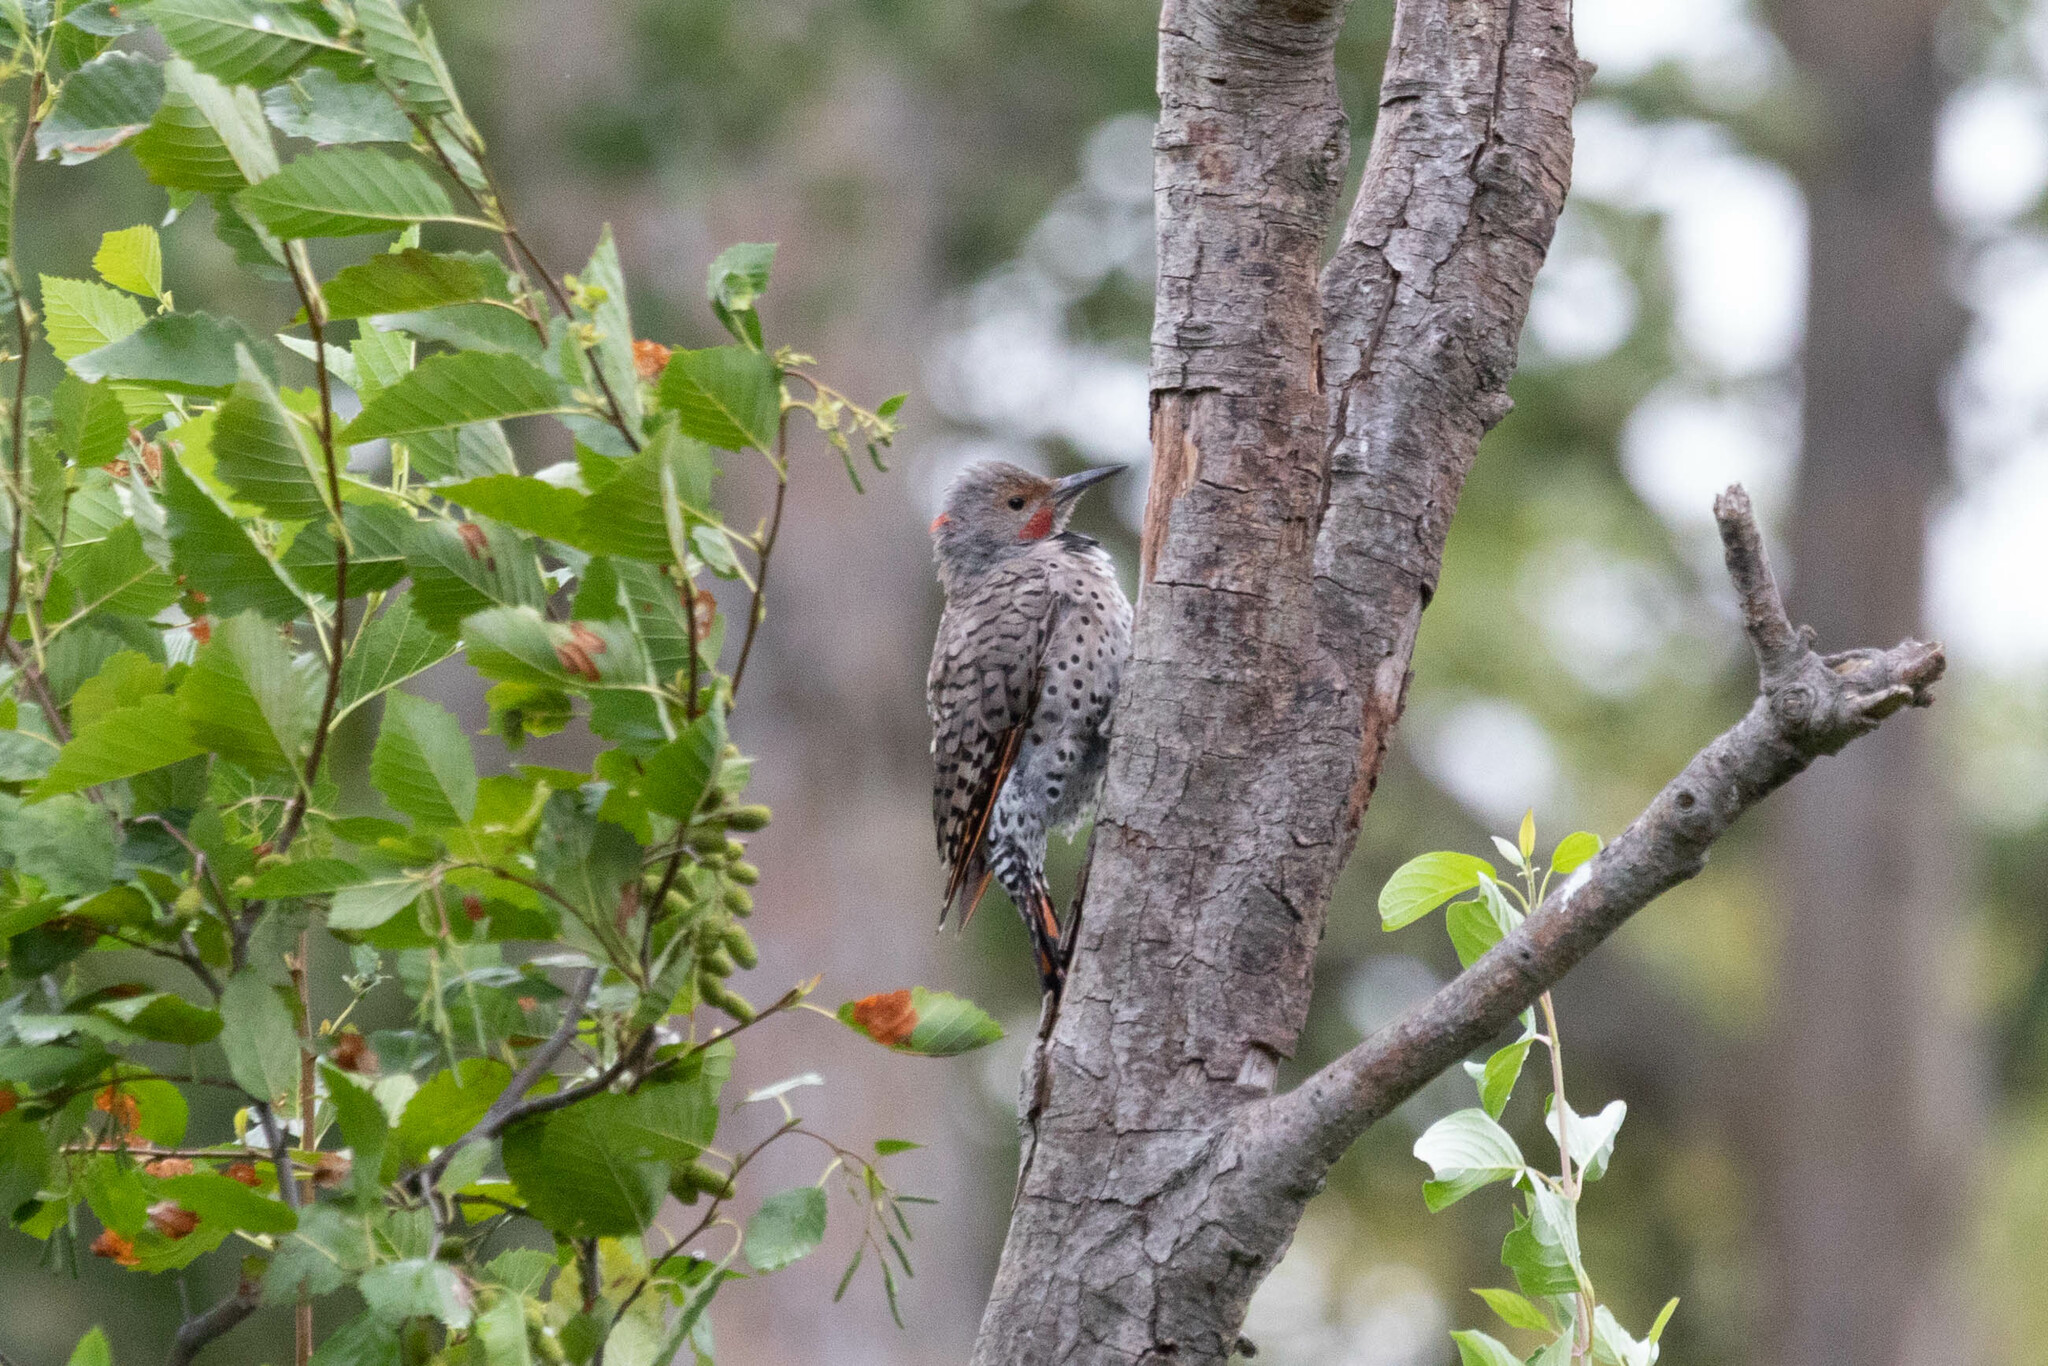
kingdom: Animalia
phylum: Chordata
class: Aves
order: Piciformes
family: Picidae
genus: Colaptes
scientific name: Colaptes
